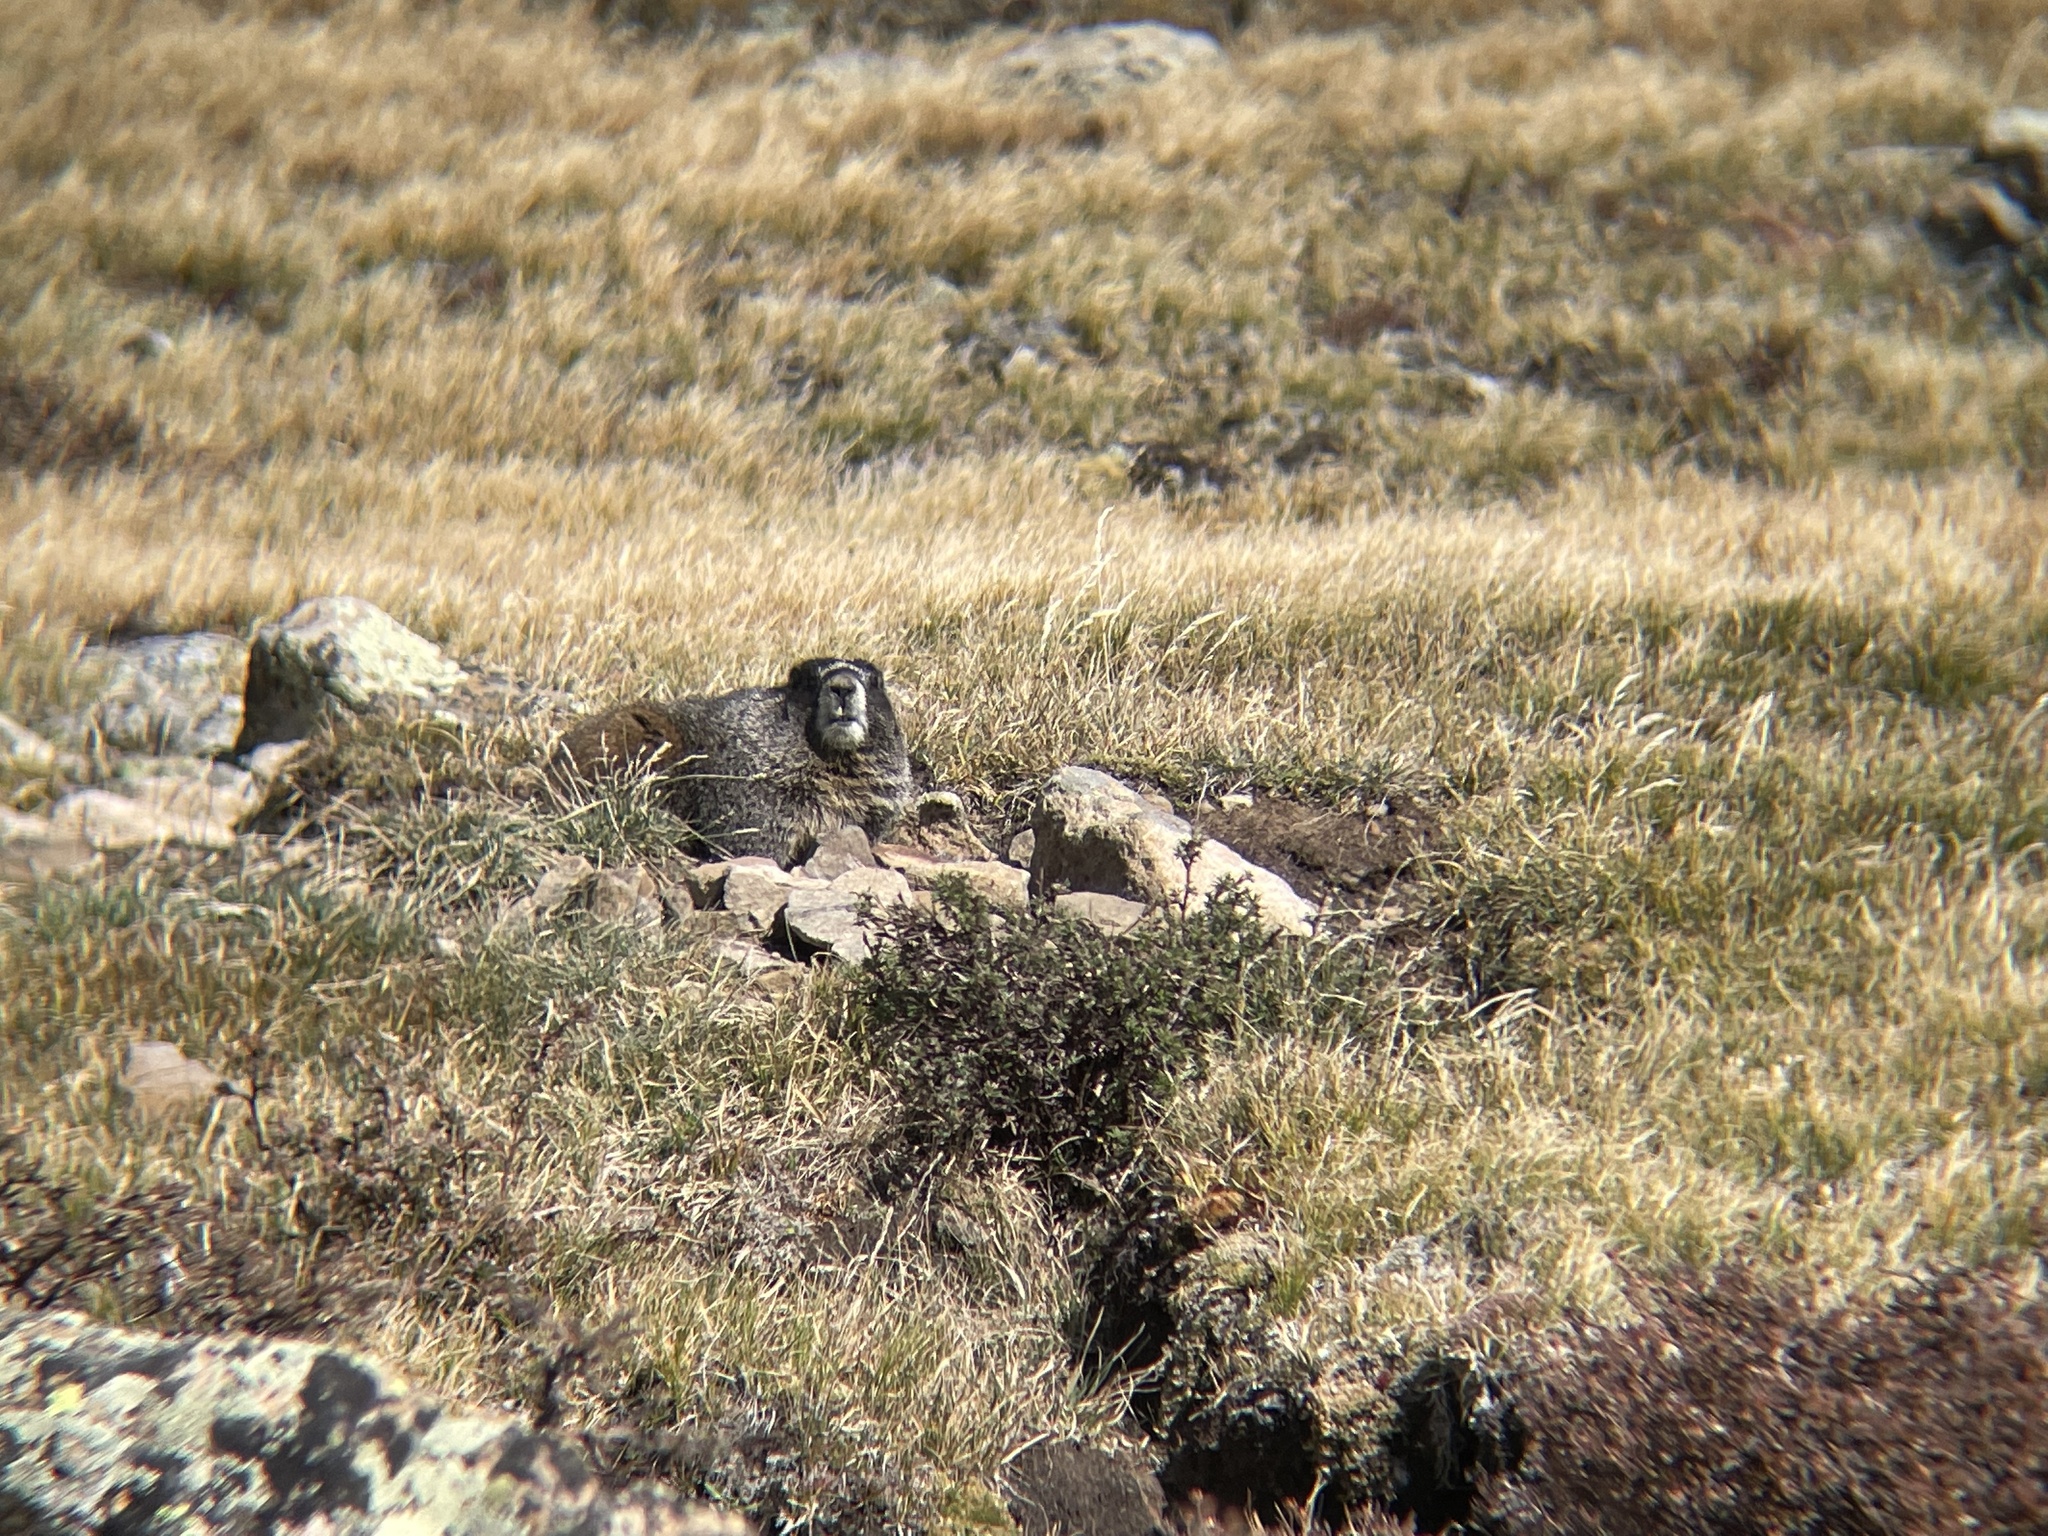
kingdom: Animalia
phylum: Chordata
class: Mammalia
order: Rodentia
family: Sciuridae
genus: Marmota
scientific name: Marmota flaviventris
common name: Yellow-bellied marmot
